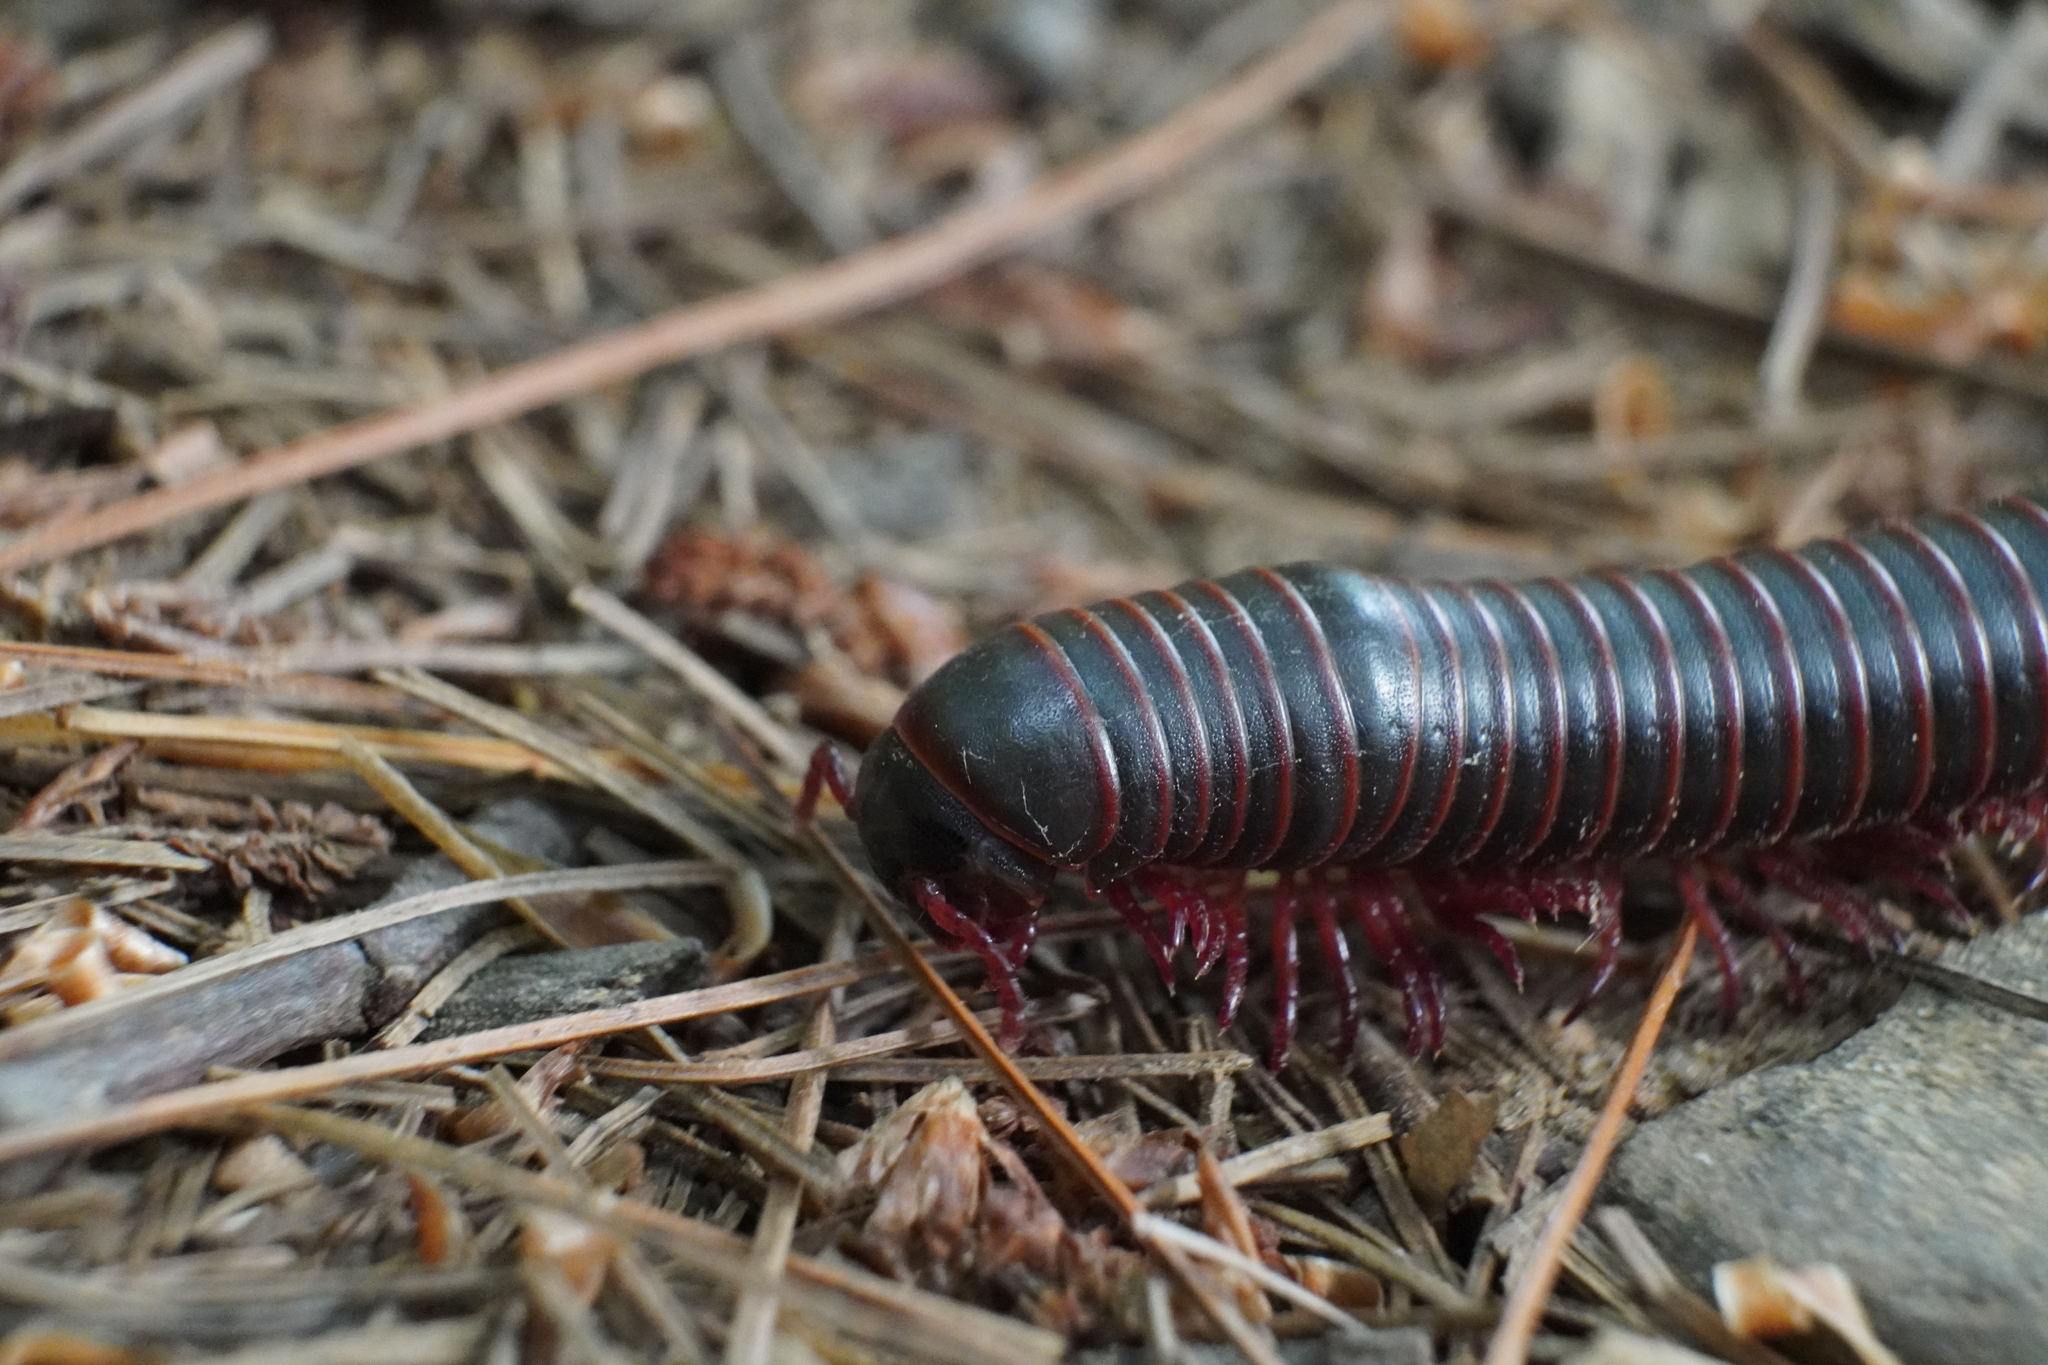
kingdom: Animalia
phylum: Arthropoda
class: Diplopoda
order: Spirobolida
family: Spirobolidae
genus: Narceus
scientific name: Narceus americanus
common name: American giant millipede
